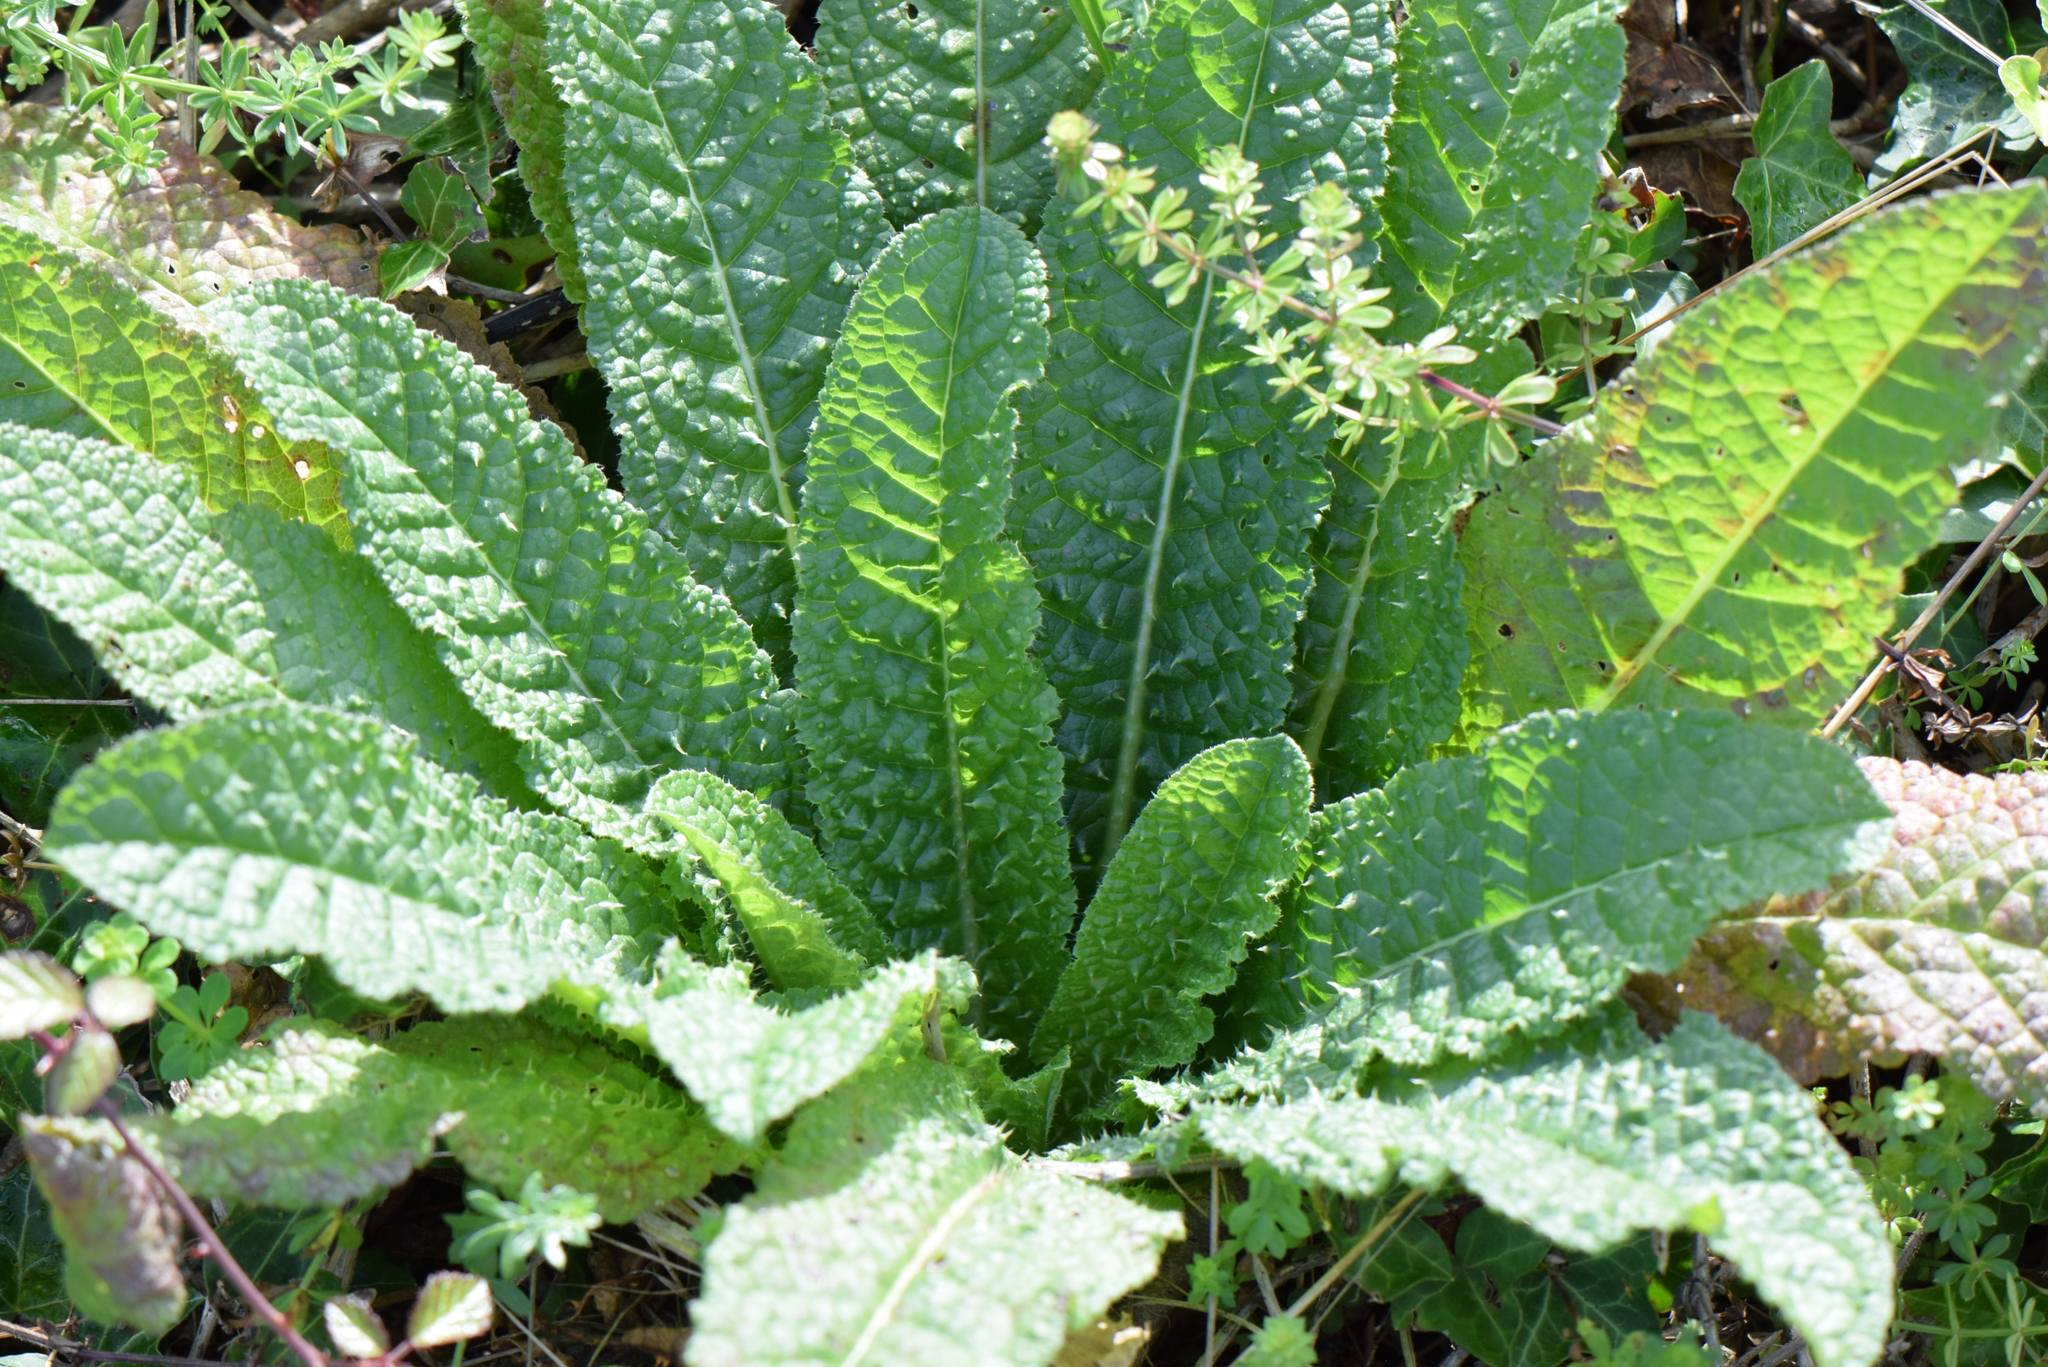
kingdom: Plantae
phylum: Tracheophyta
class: Magnoliopsida
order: Dipsacales
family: Caprifoliaceae
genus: Dipsacus
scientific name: Dipsacus fullonum
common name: Teasel
